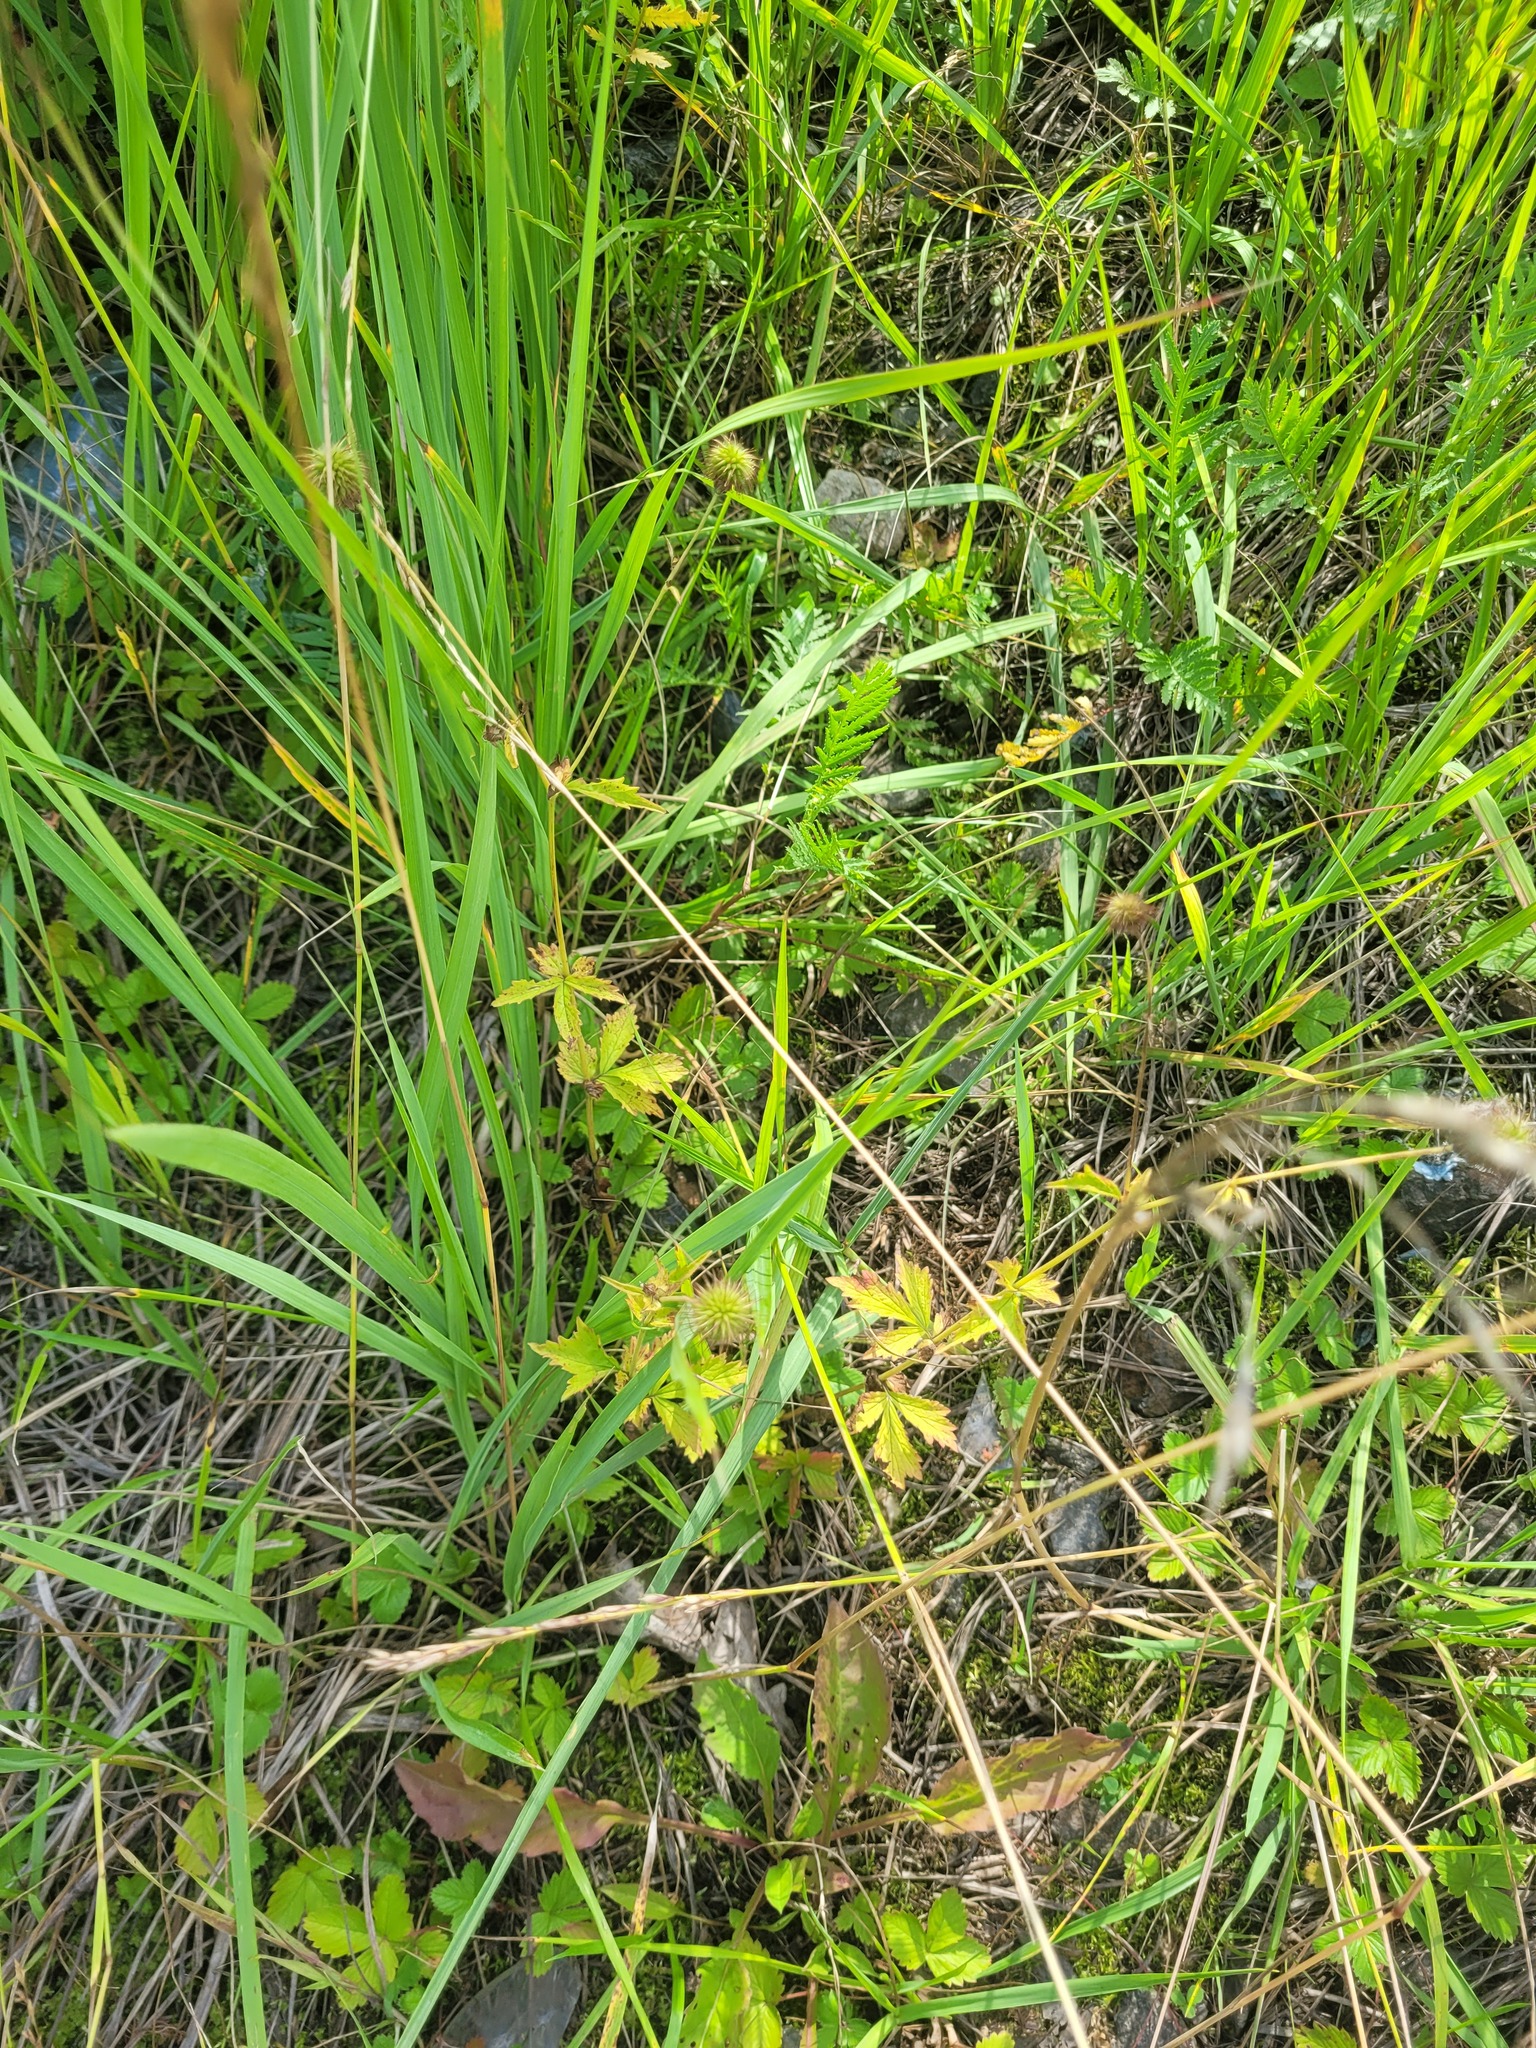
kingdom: Plantae
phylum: Tracheophyta
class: Magnoliopsida
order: Rosales
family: Rosaceae
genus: Geum
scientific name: Geum urbanum
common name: Wood avens
